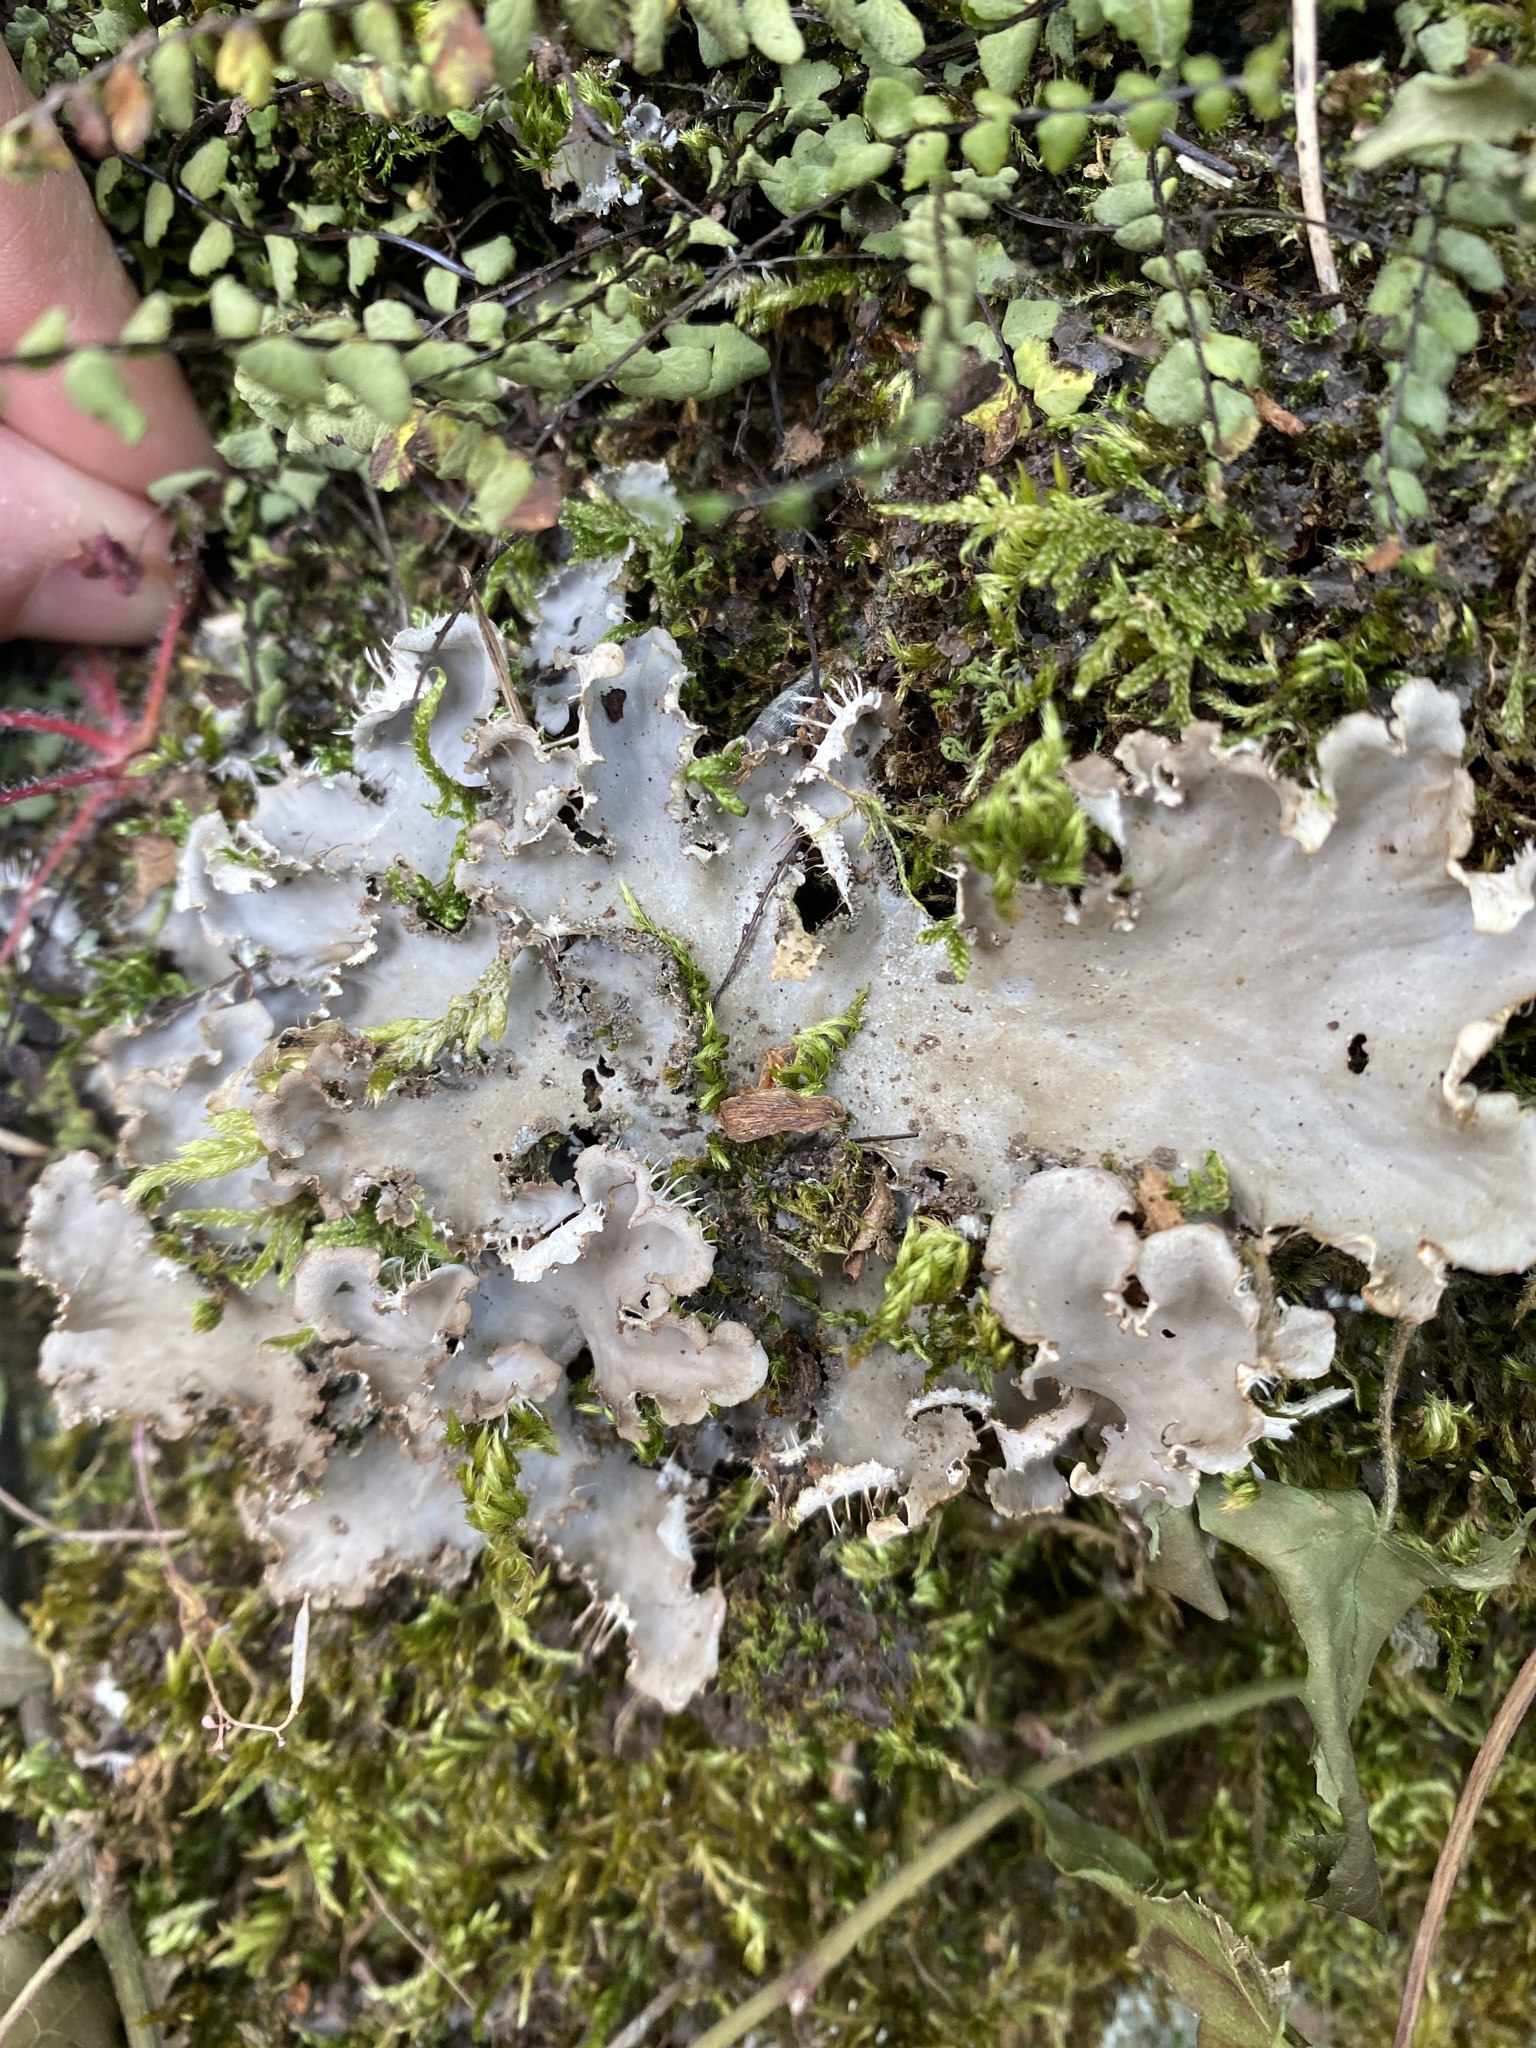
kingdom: Fungi
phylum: Ascomycota
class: Lecanoromycetes
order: Peltigerales
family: Peltigeraceae
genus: Peltigera
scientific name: Peltigera praetextata
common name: Scaly dog-lichen
